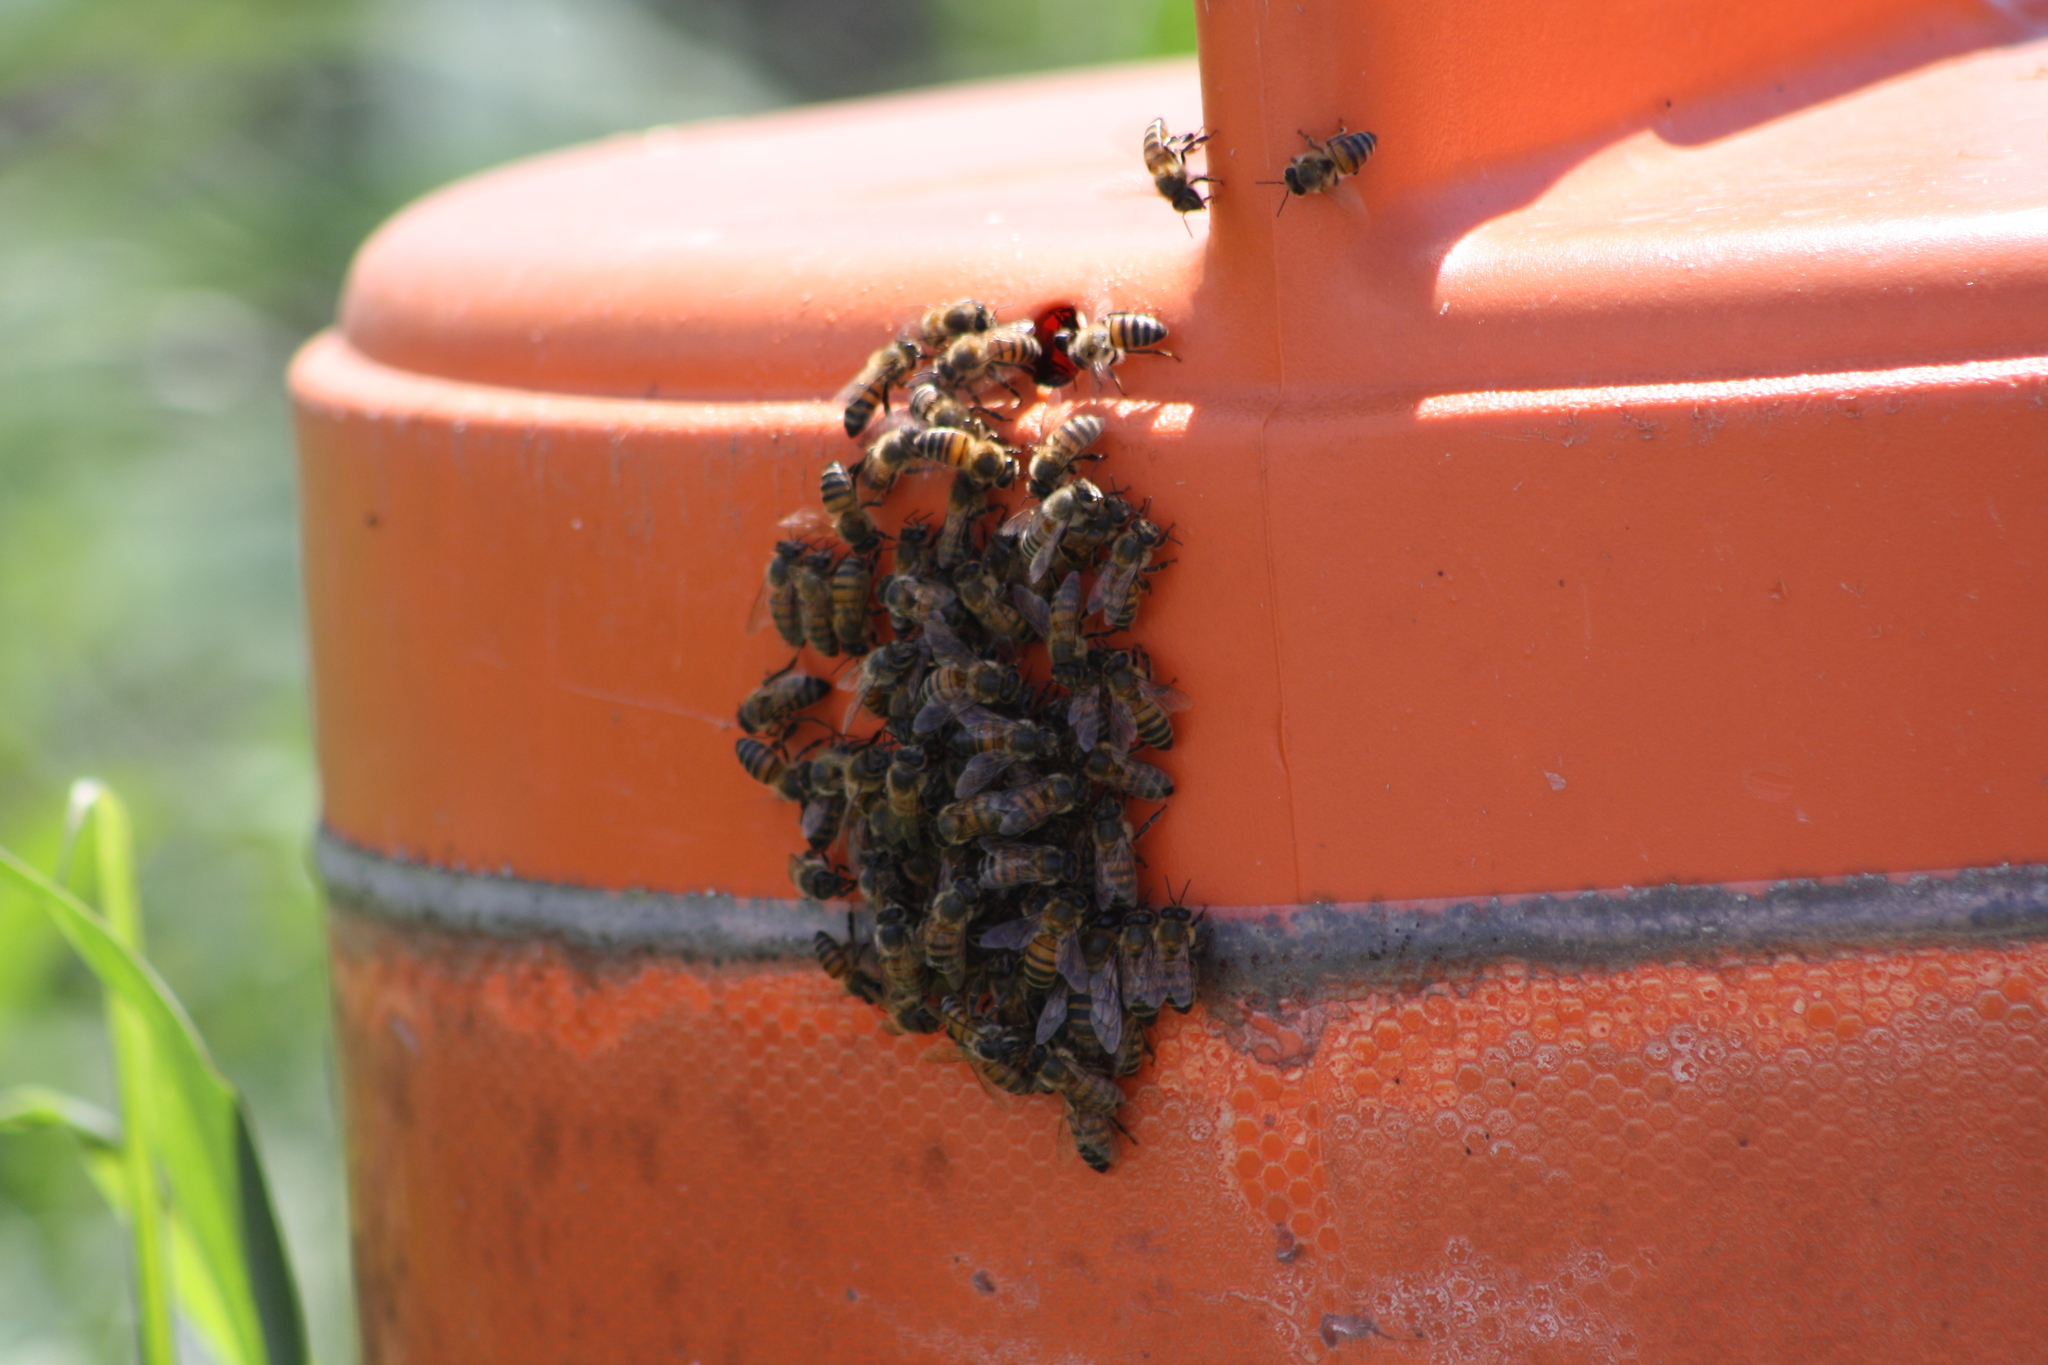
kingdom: Animalia
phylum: Arthropoda
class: Insecta
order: Hymenoptera
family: Apidae
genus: Apis
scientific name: Apis mellifera
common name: Honey bee
